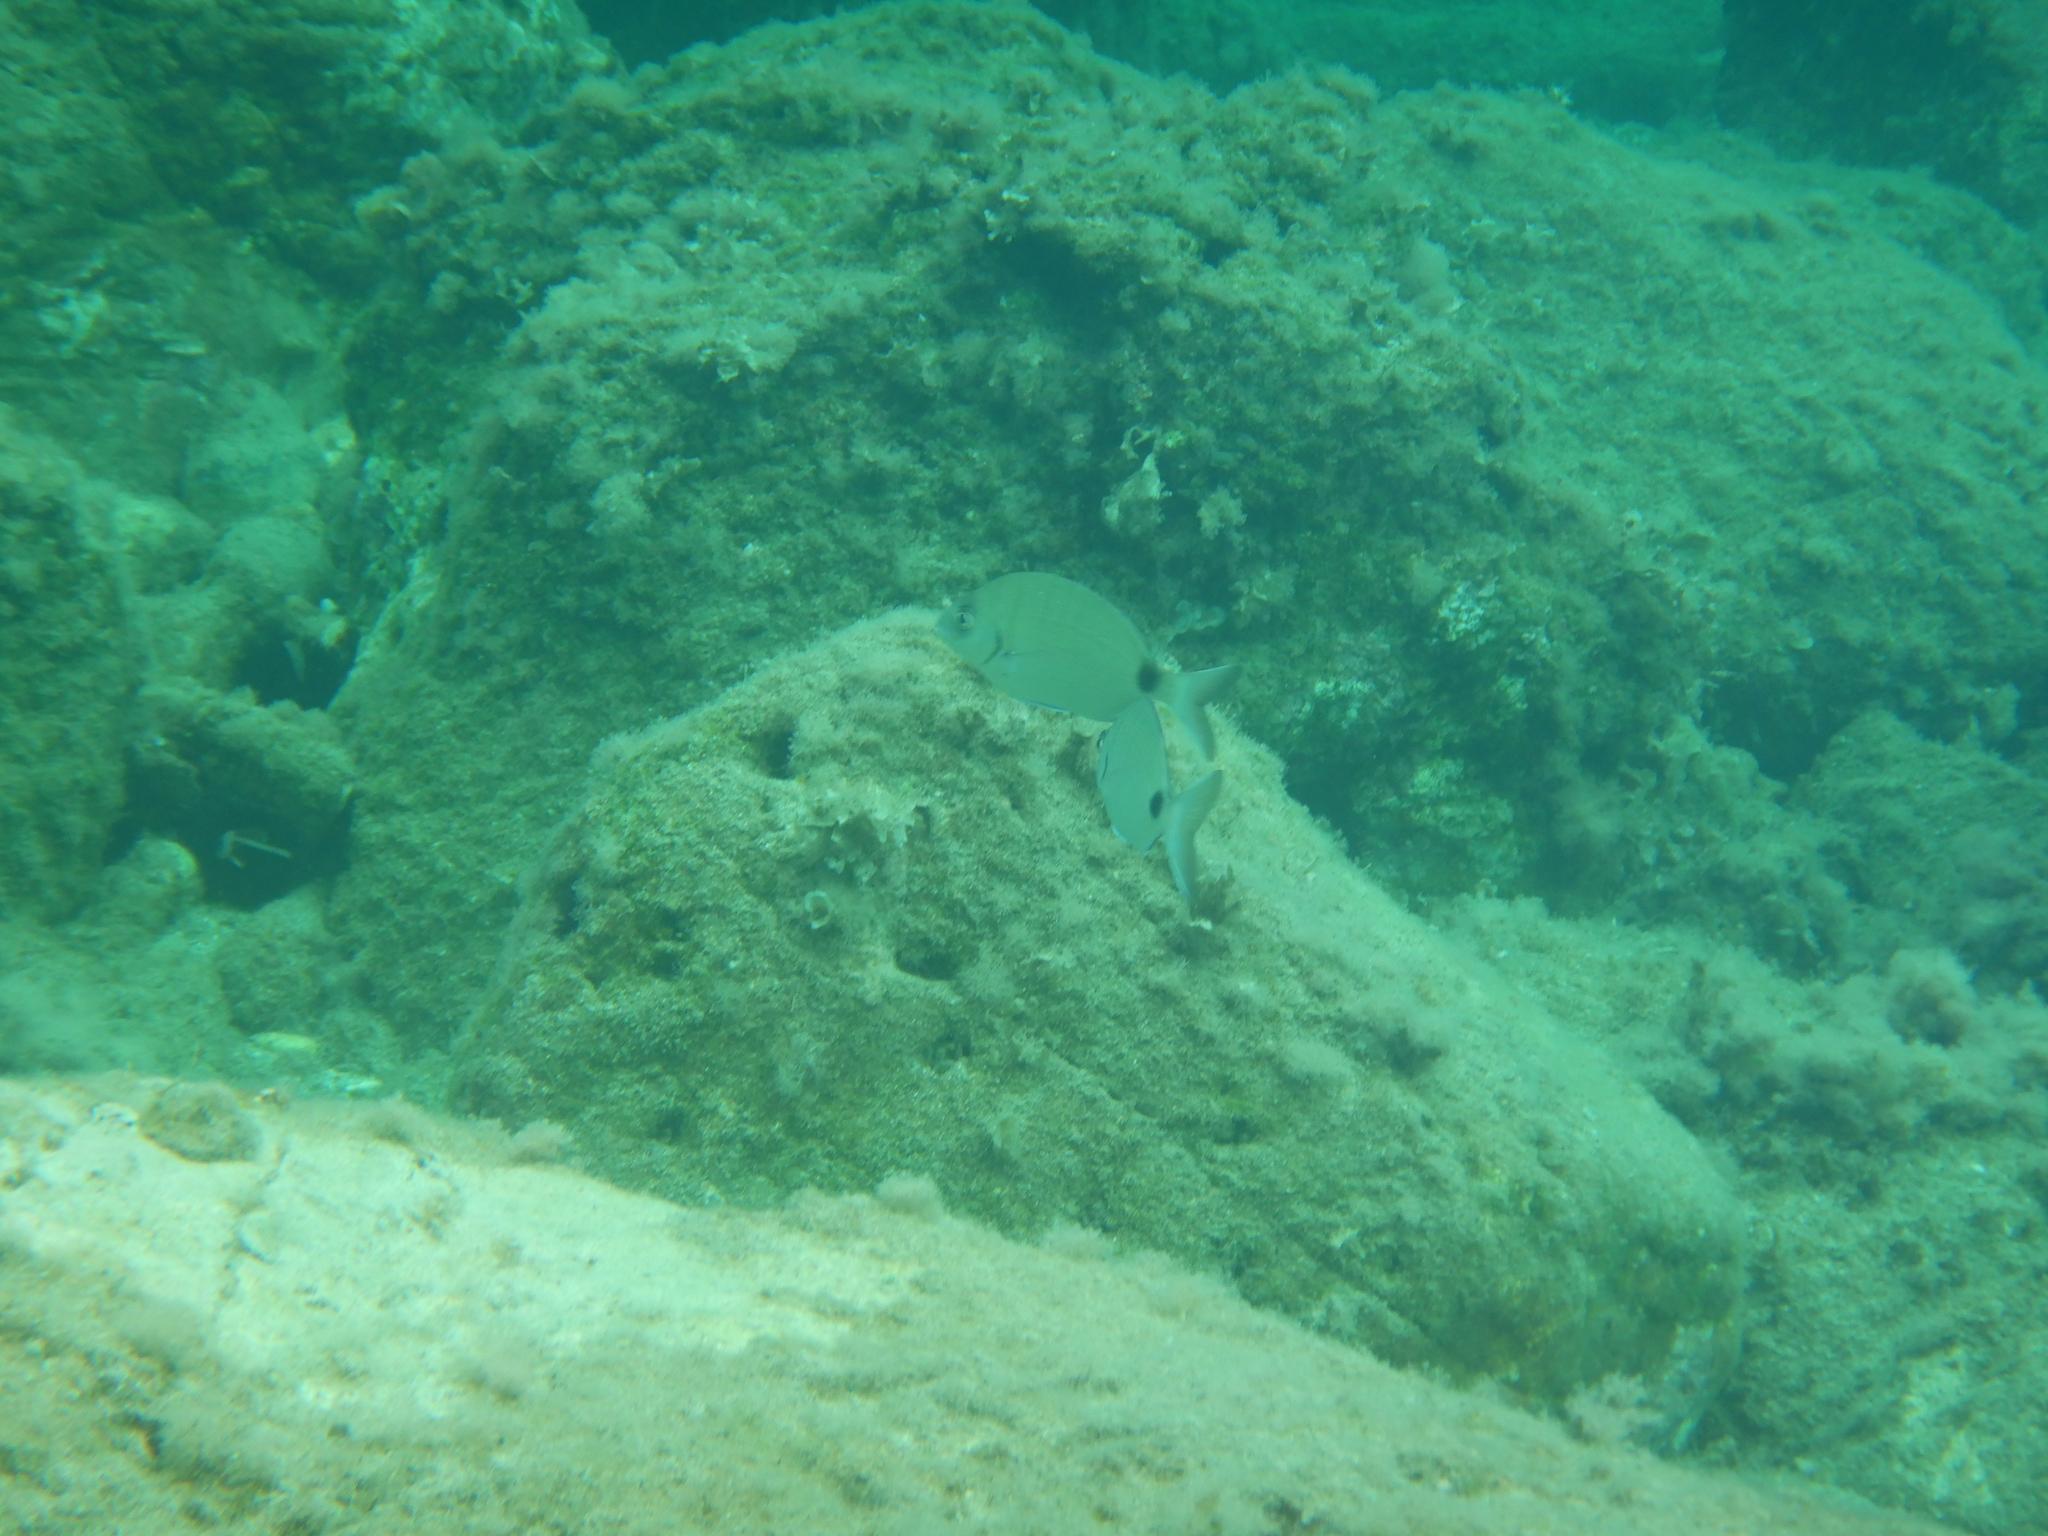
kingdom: Animalia
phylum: Chordata
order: Perciformes
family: Sparidae
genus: Diplodus
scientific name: Diplodus sargus
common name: White seabream
